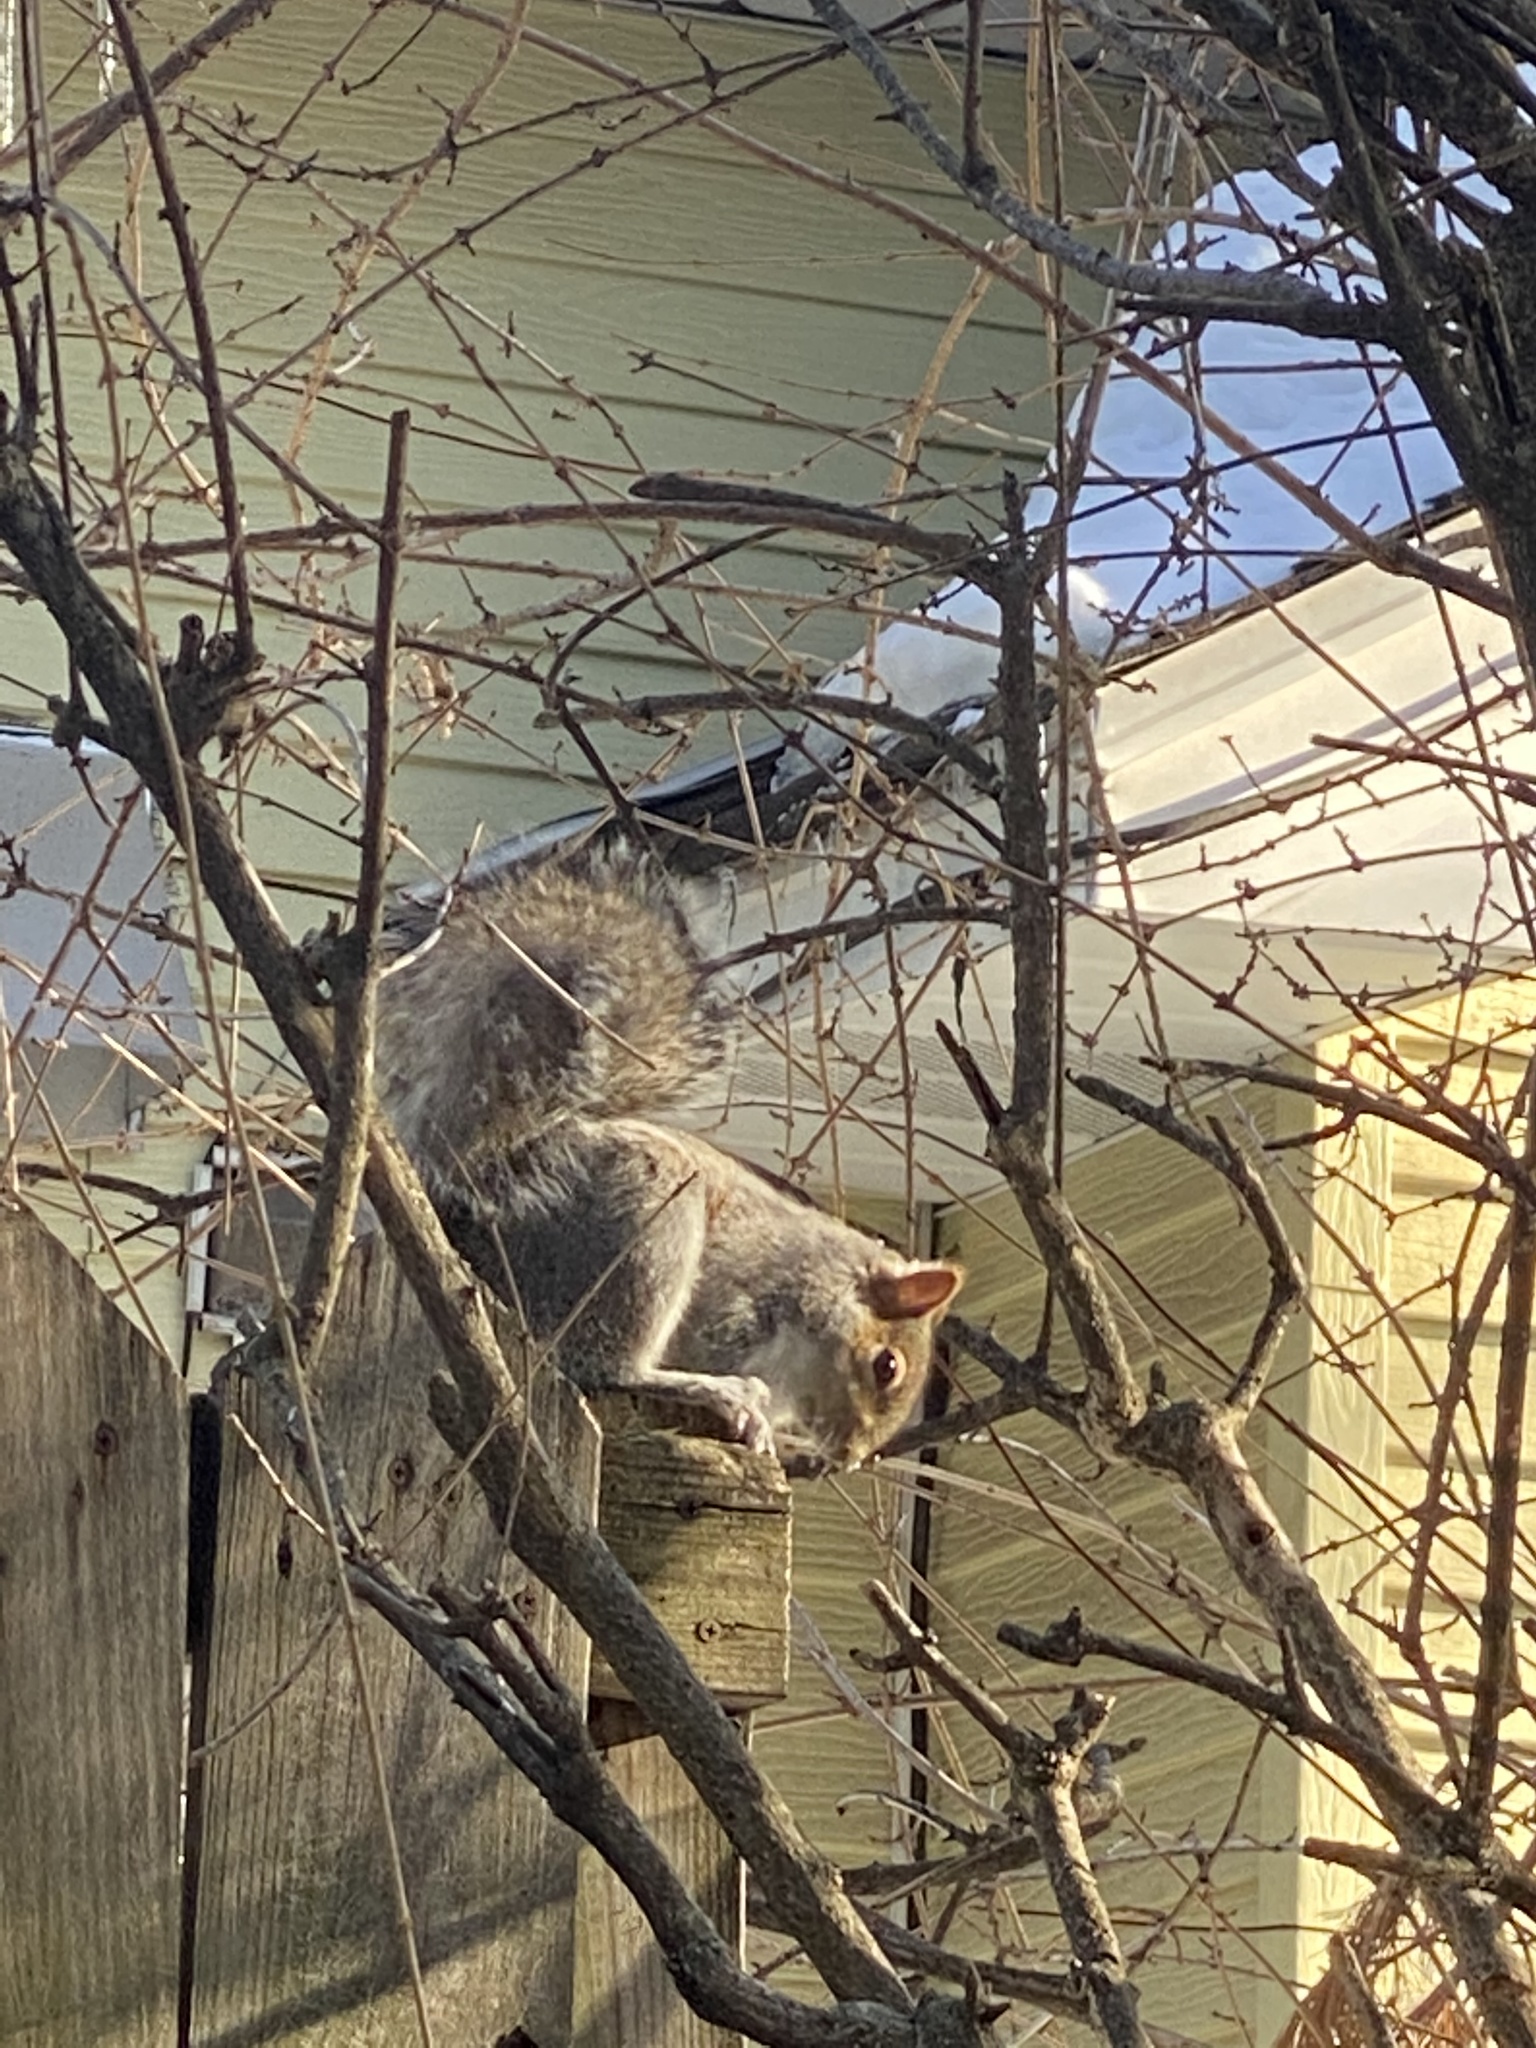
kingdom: Animalia
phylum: Chordata
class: Mammalia
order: Rodentia
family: Sciuridae
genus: Sciurus
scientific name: Sciurus carolinensis
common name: Eastern gray squirrel
